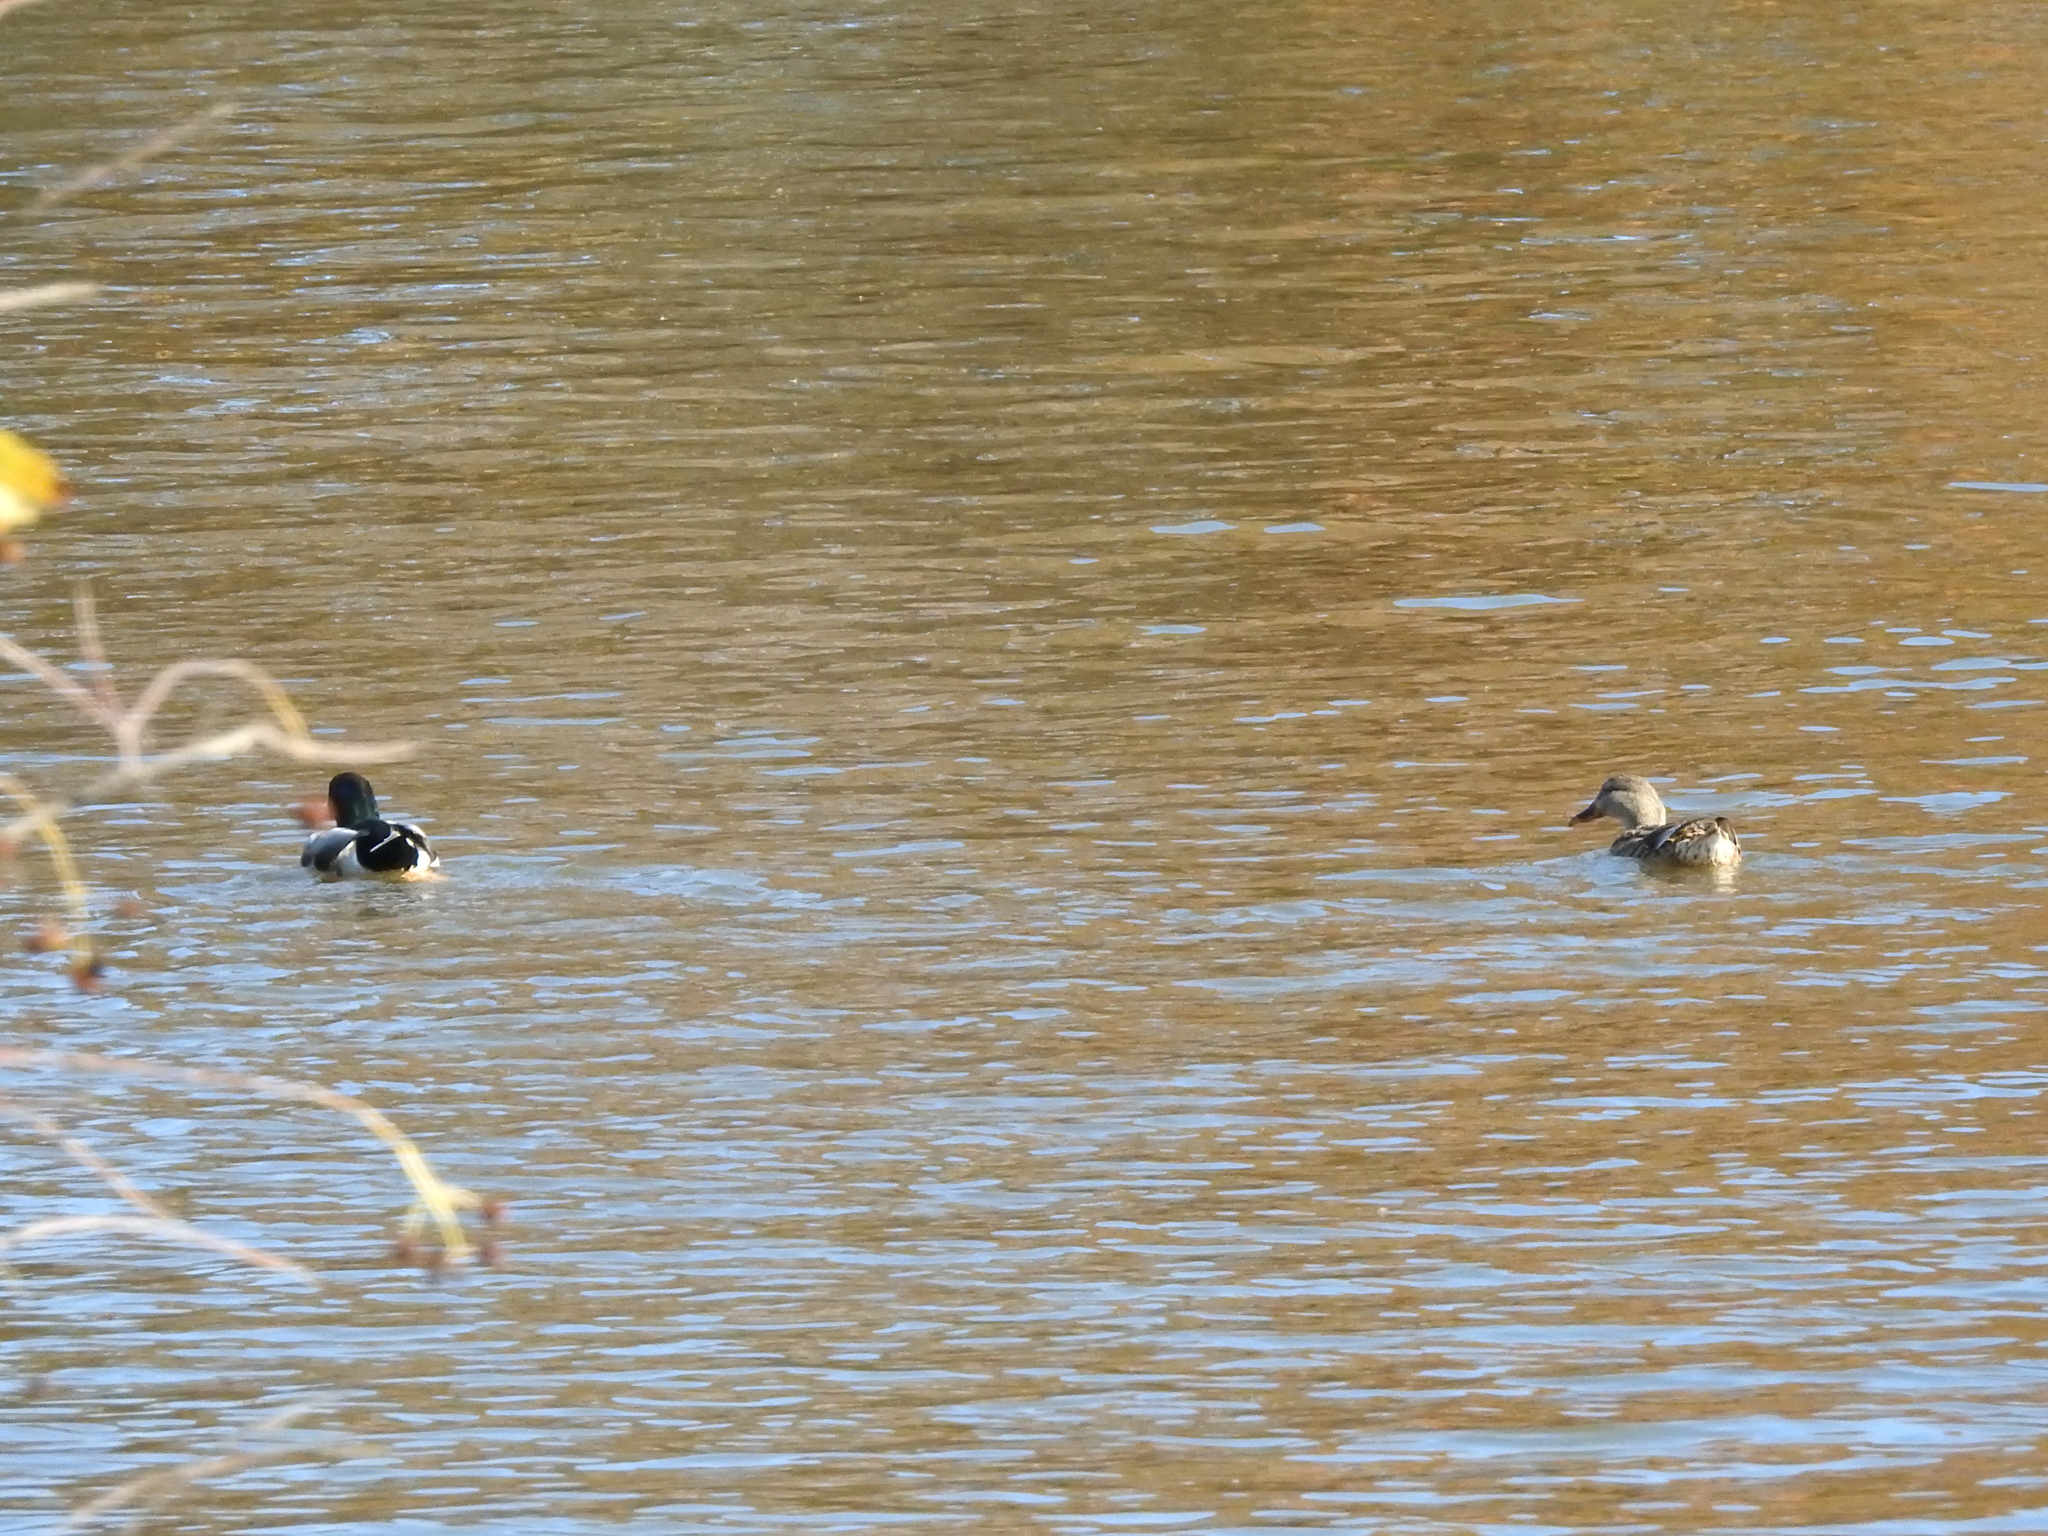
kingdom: Animalia
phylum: Chordata
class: Aves
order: Anseriformes
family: Anatidae
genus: Anas
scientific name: Anas platyrhynchos
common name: Mallard
